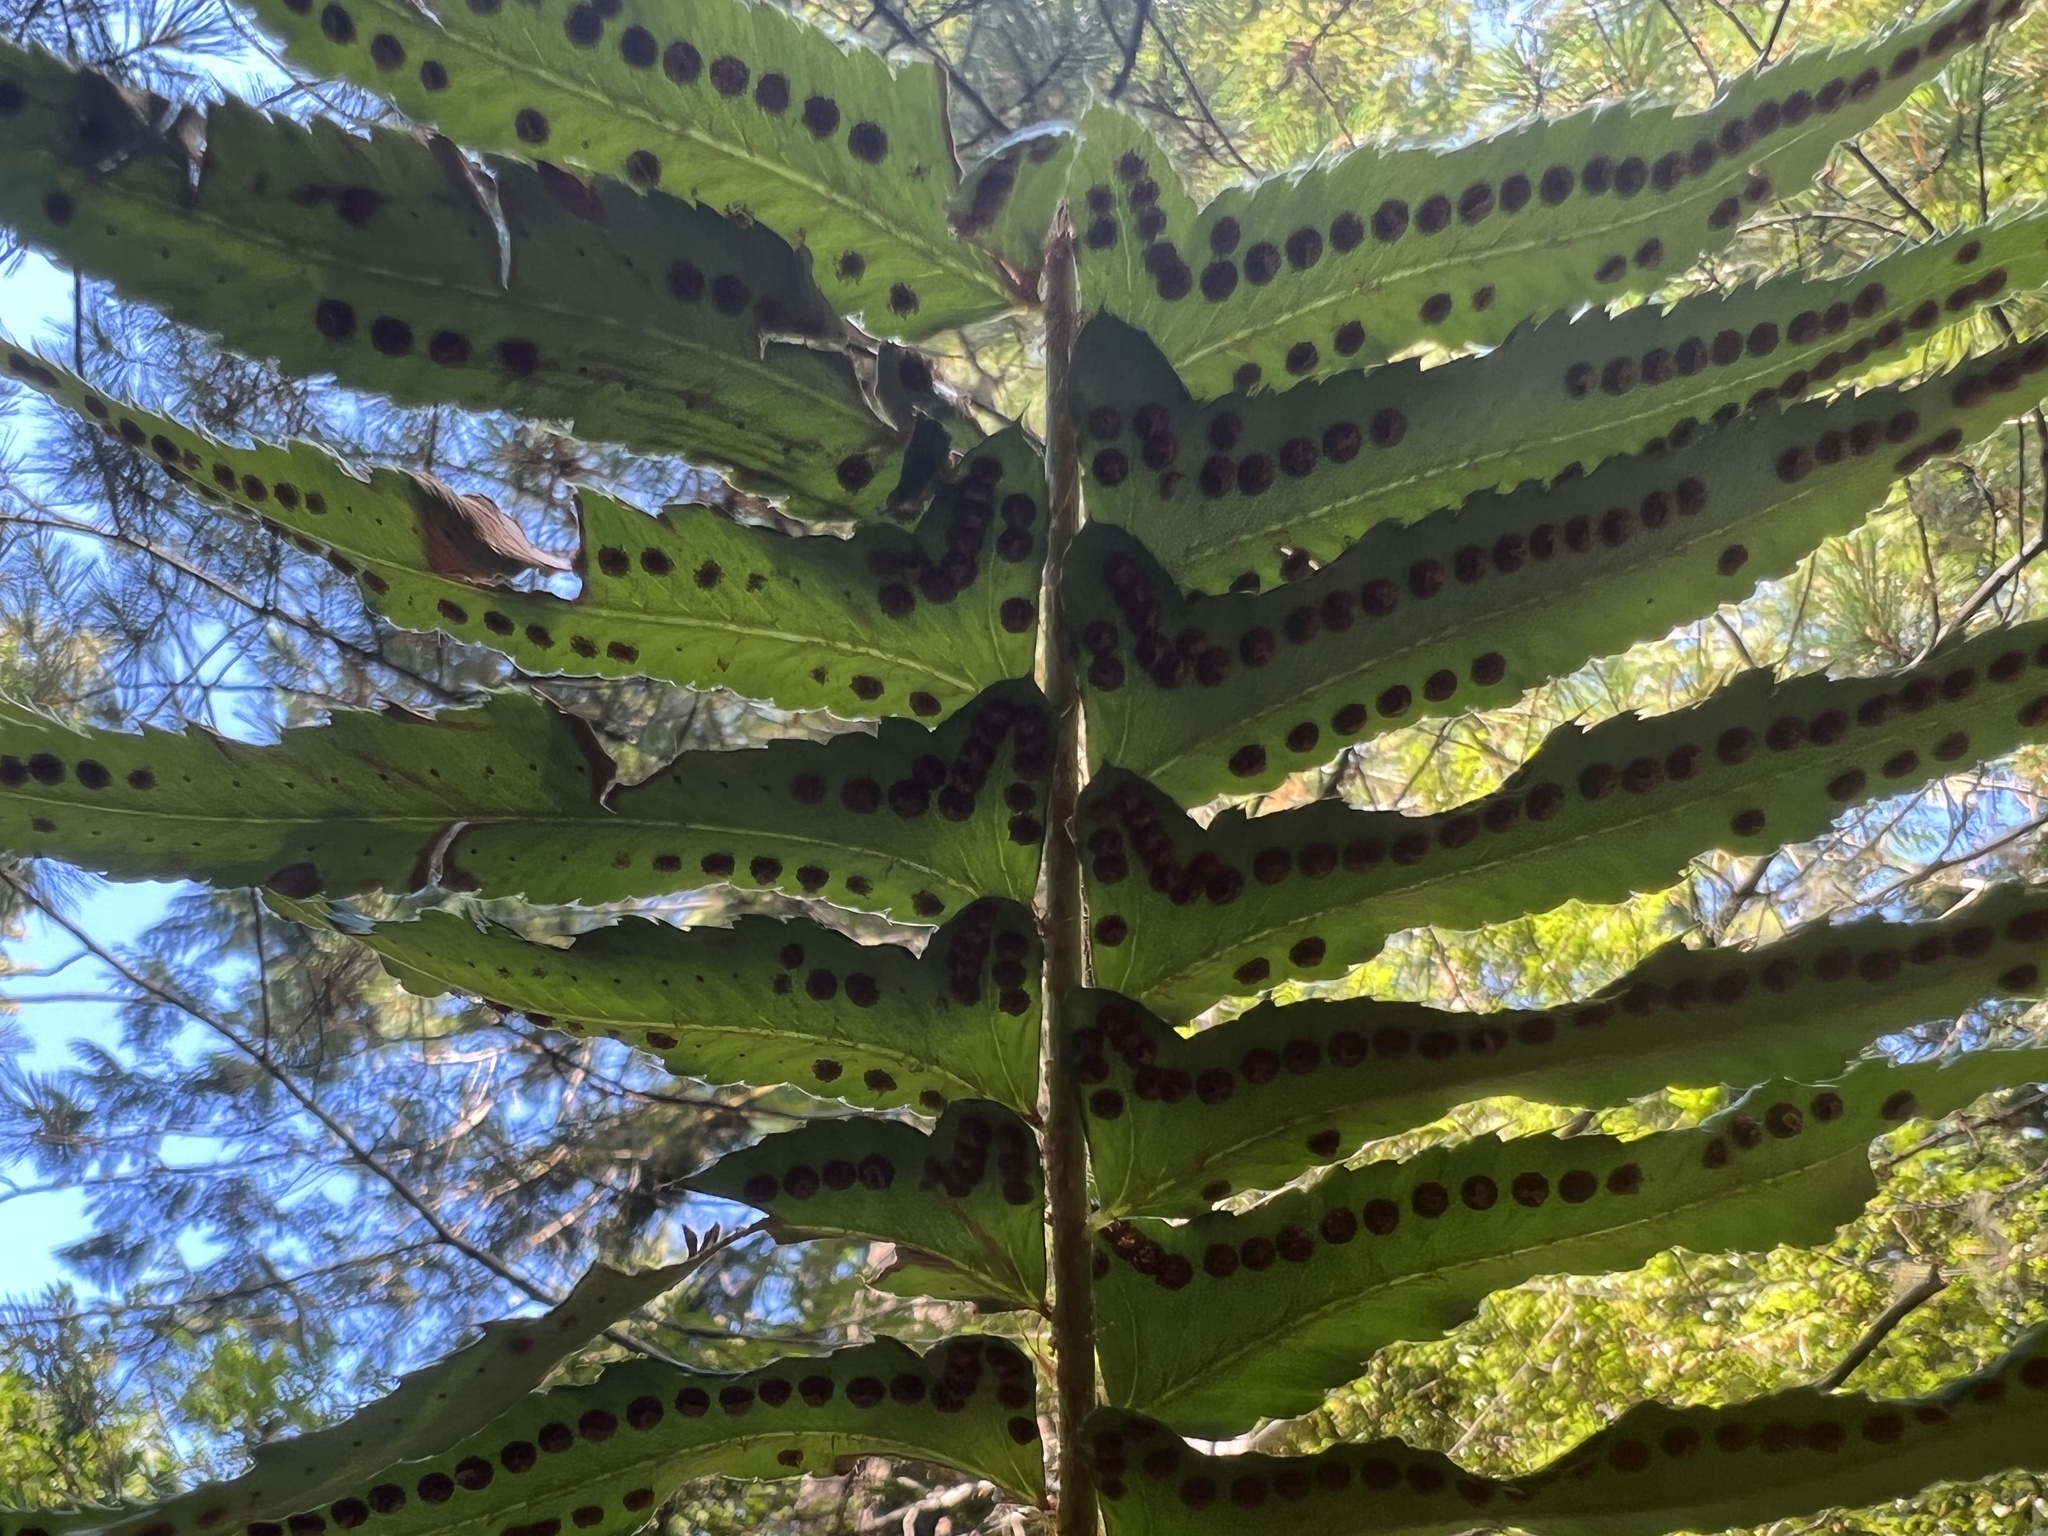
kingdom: Plantae
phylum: Tracheophyta
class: Polypodiopsida
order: Polypodiales
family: Dryopteridaceae
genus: Polystichum
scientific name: Polystichum munitum
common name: Western sword-fern
